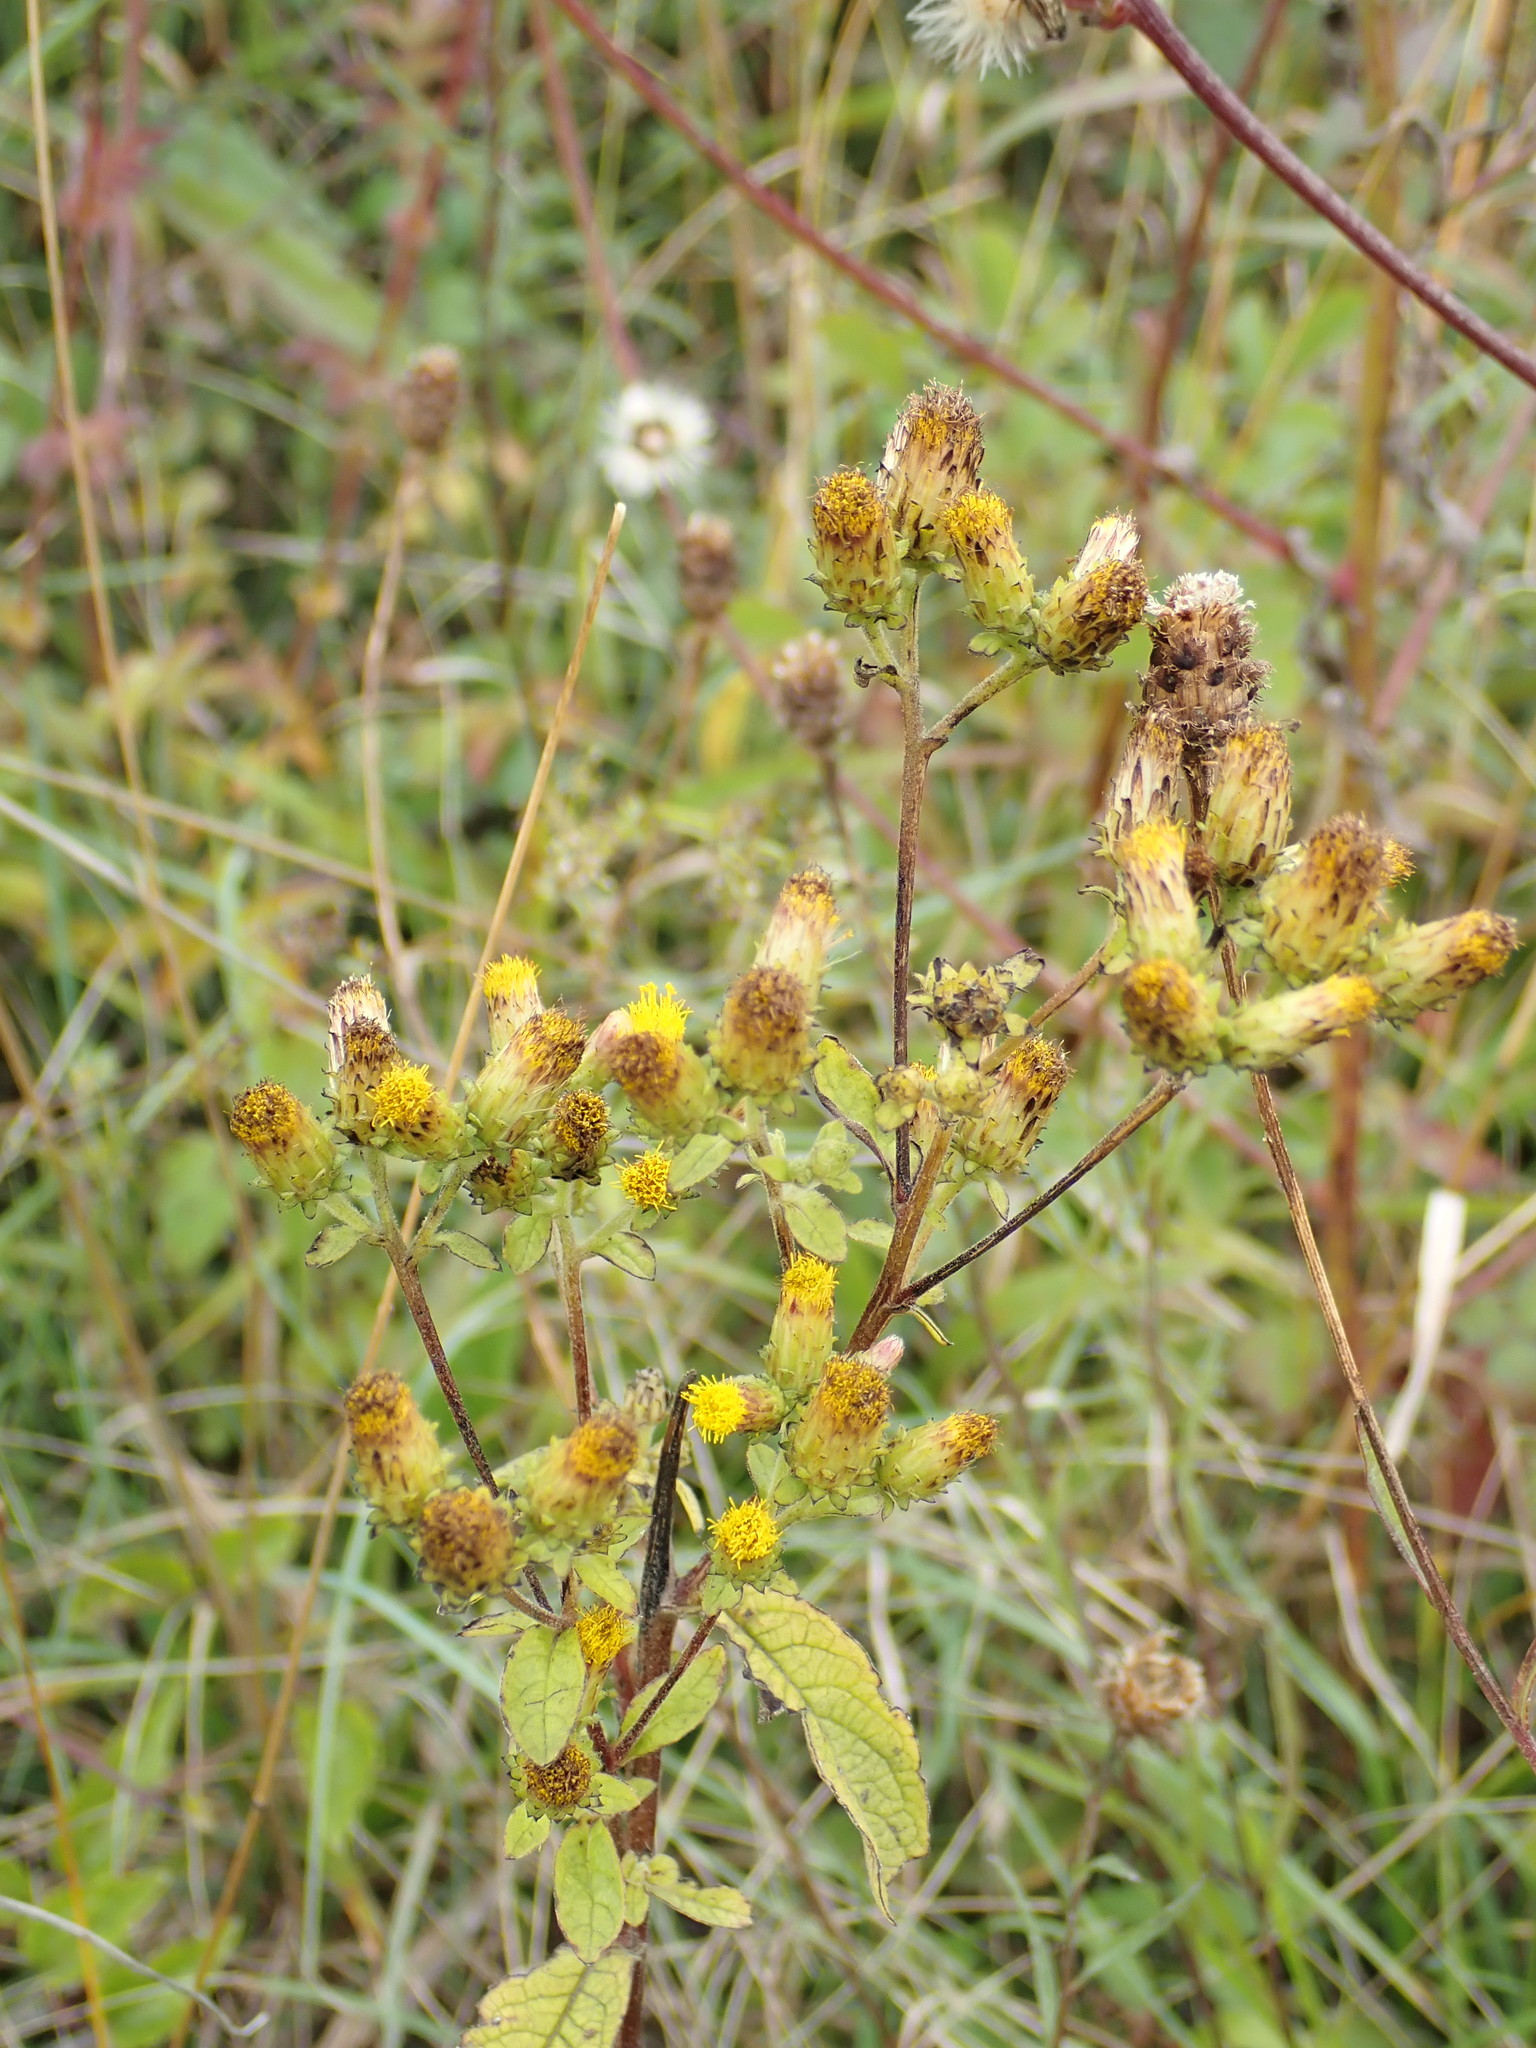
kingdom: Plantae
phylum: Tracheophyta
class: Magnoliopsida
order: Asterales
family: Asteraceae
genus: Pentanema
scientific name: Pentanema squarrosum
